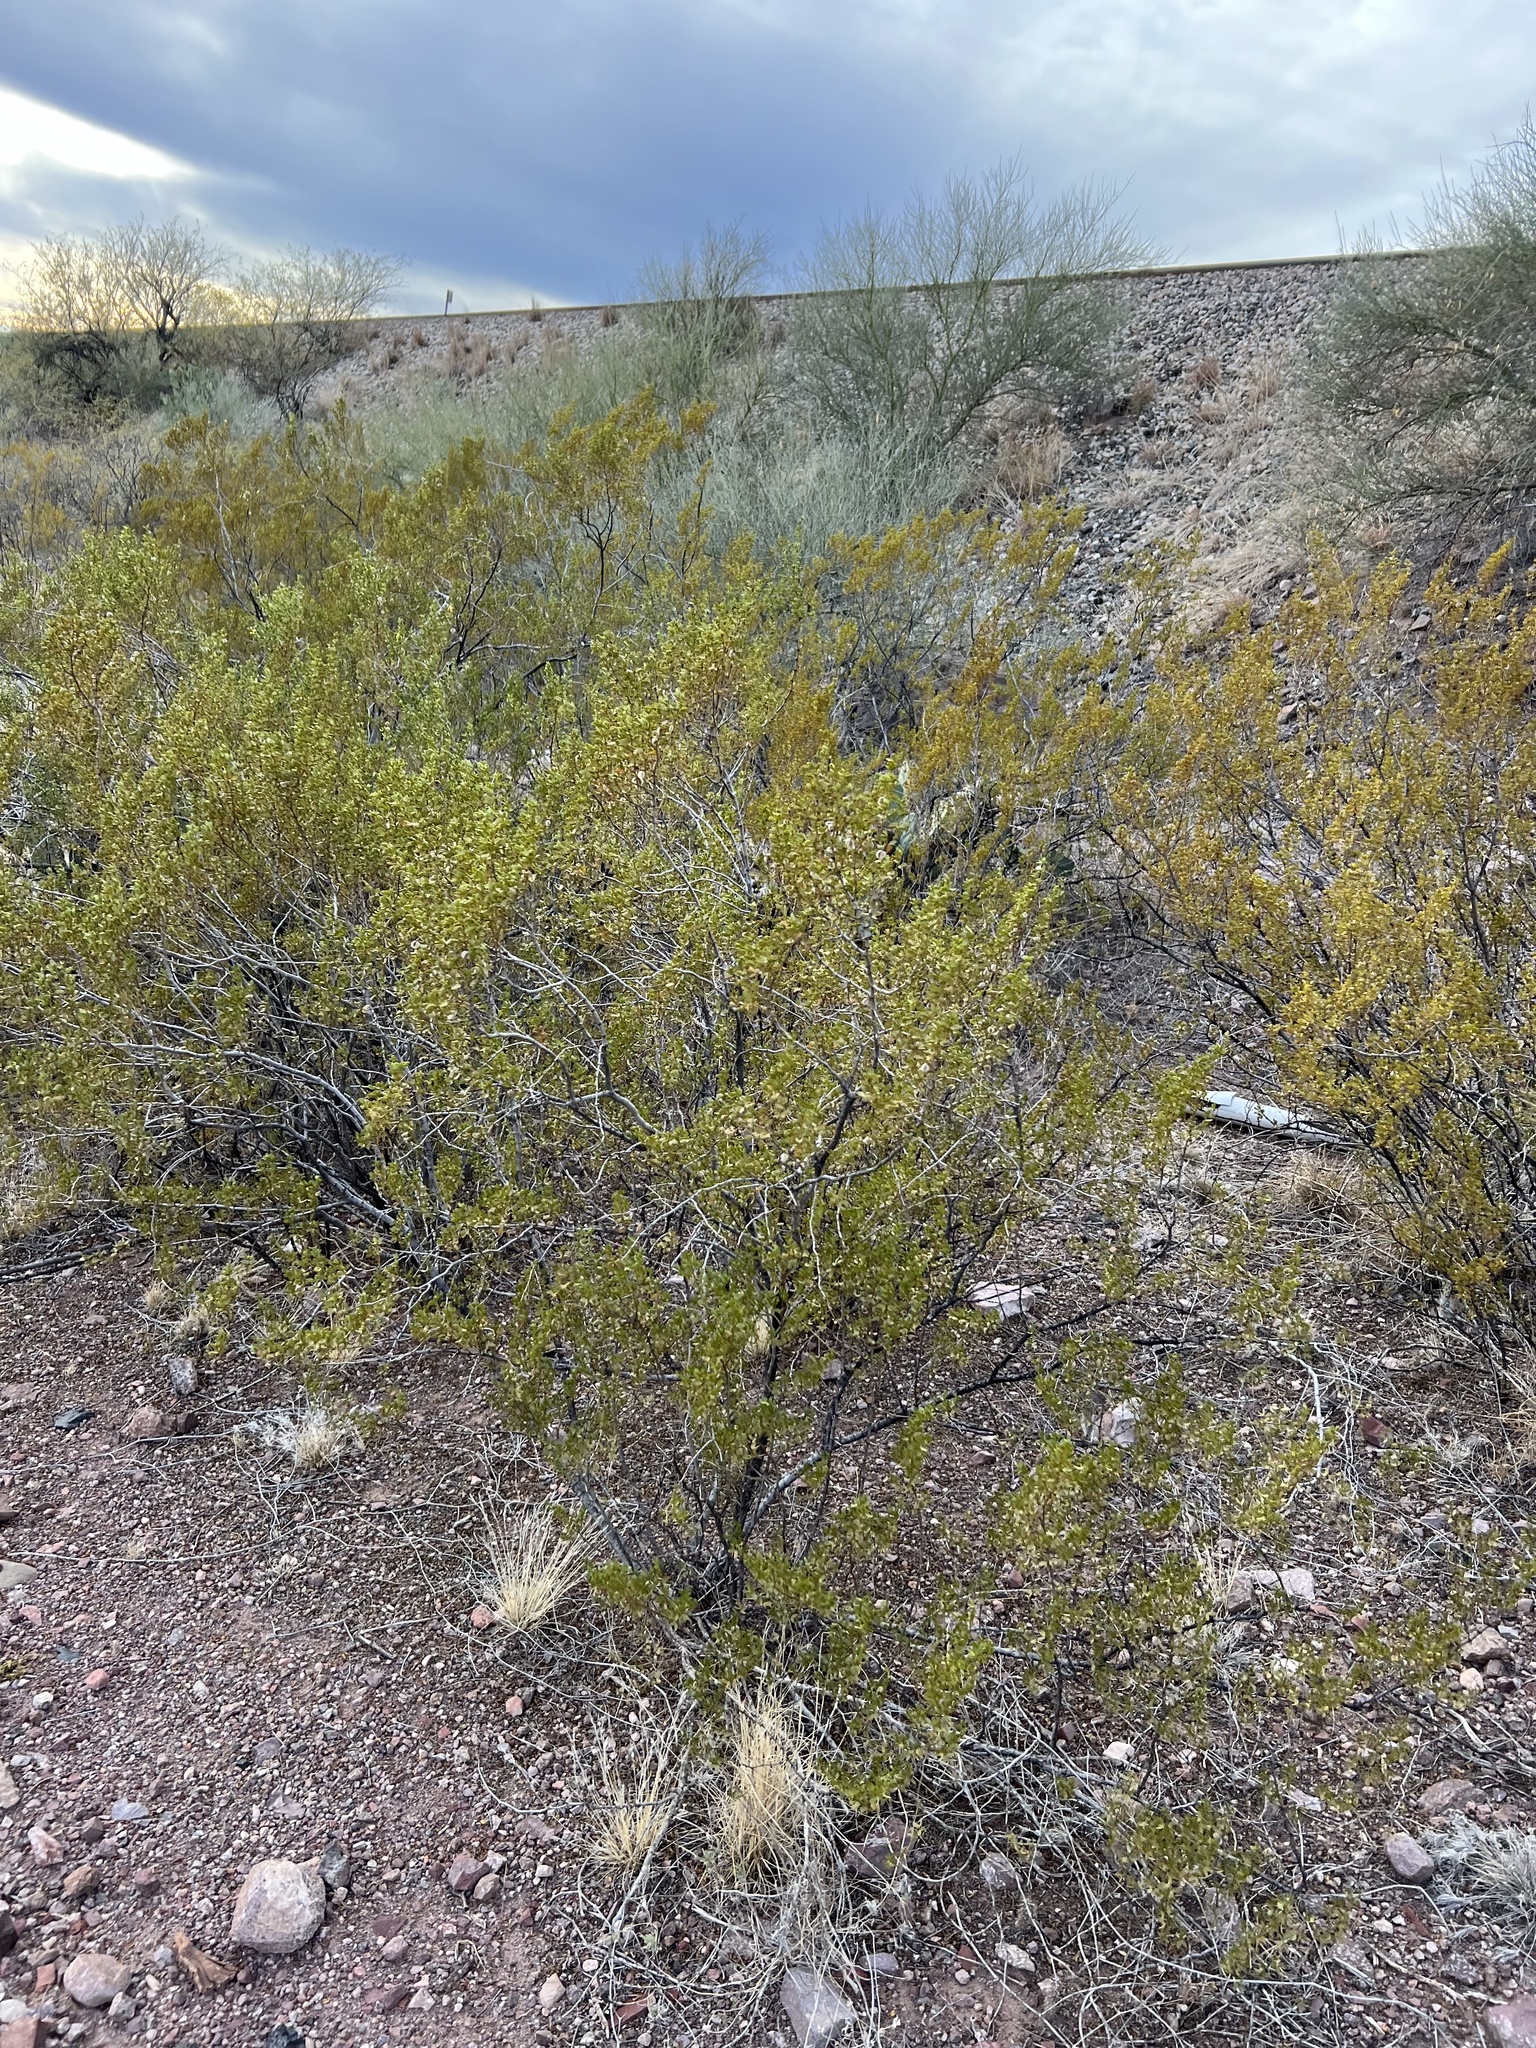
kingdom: Plantae
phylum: Tracheophyta
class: Magnoliopsida
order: Zygophyllales
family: Zygophyllaceae
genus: Larrea
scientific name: Larrea tridentata
